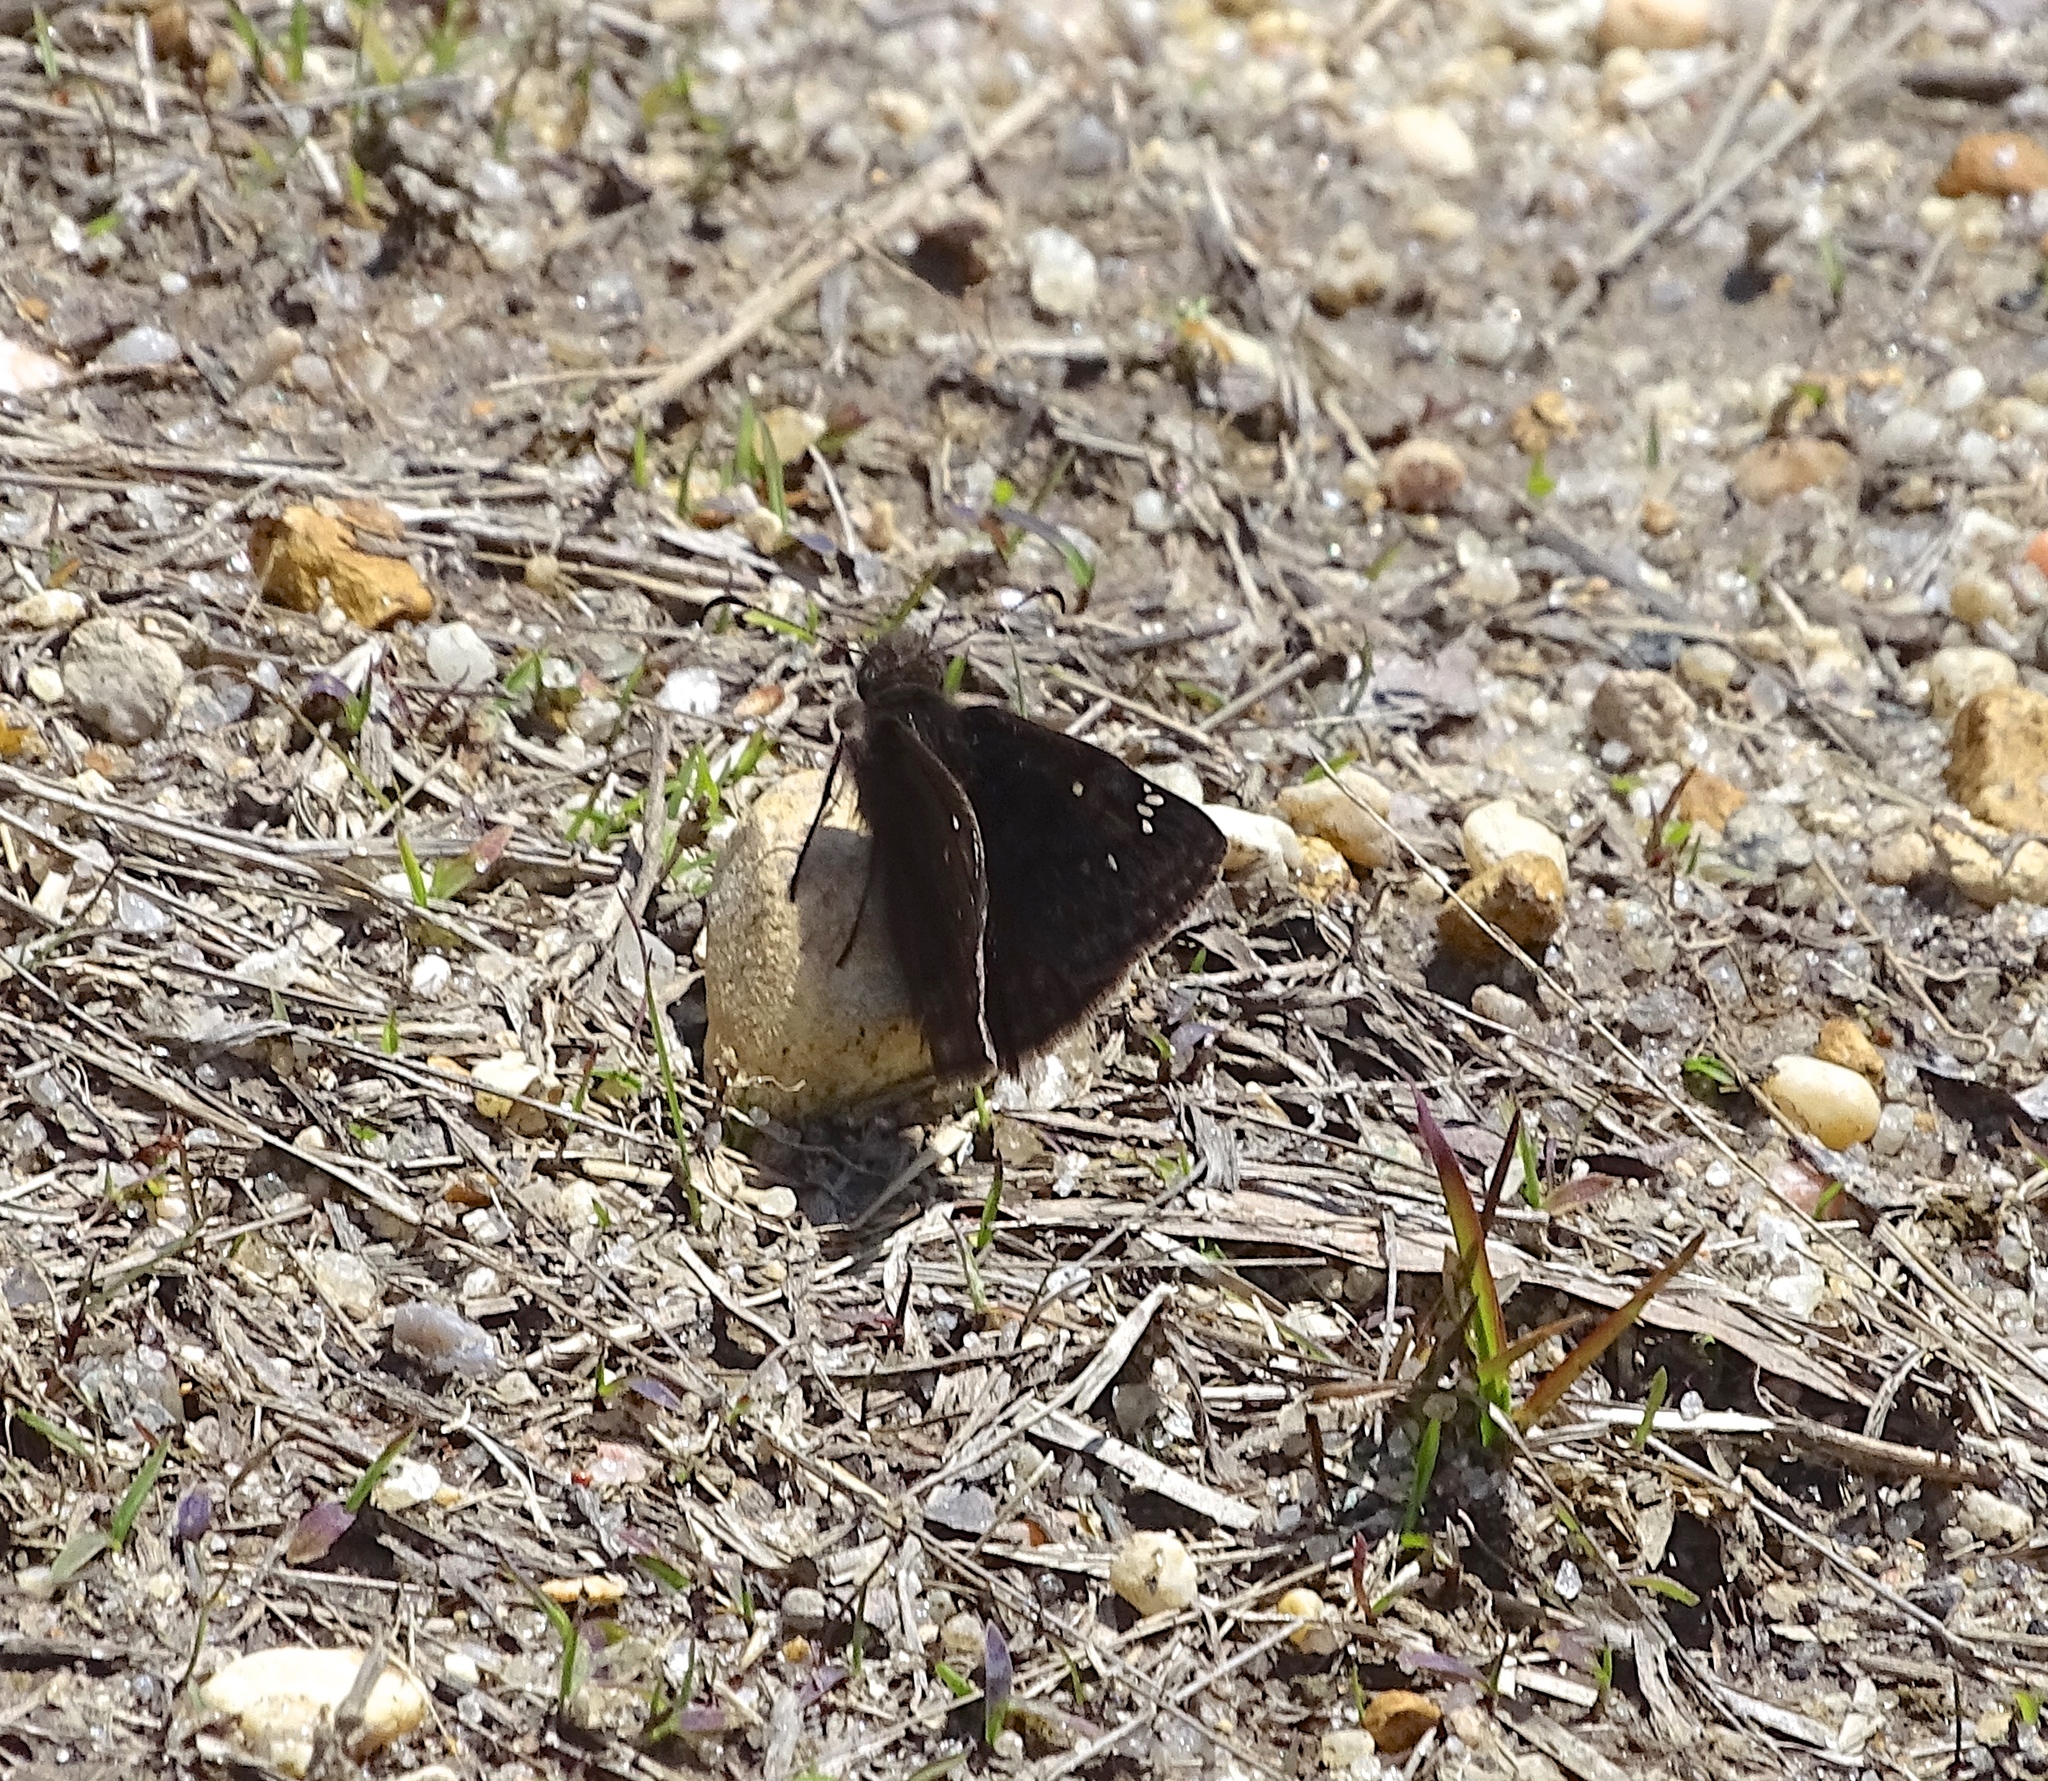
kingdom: Animalia
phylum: Arthropoda
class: Insecta
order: Lepidoptera
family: Hesperiidae
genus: Erynnis
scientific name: Erynnis juvenalis
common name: Juvenal's duskywing
